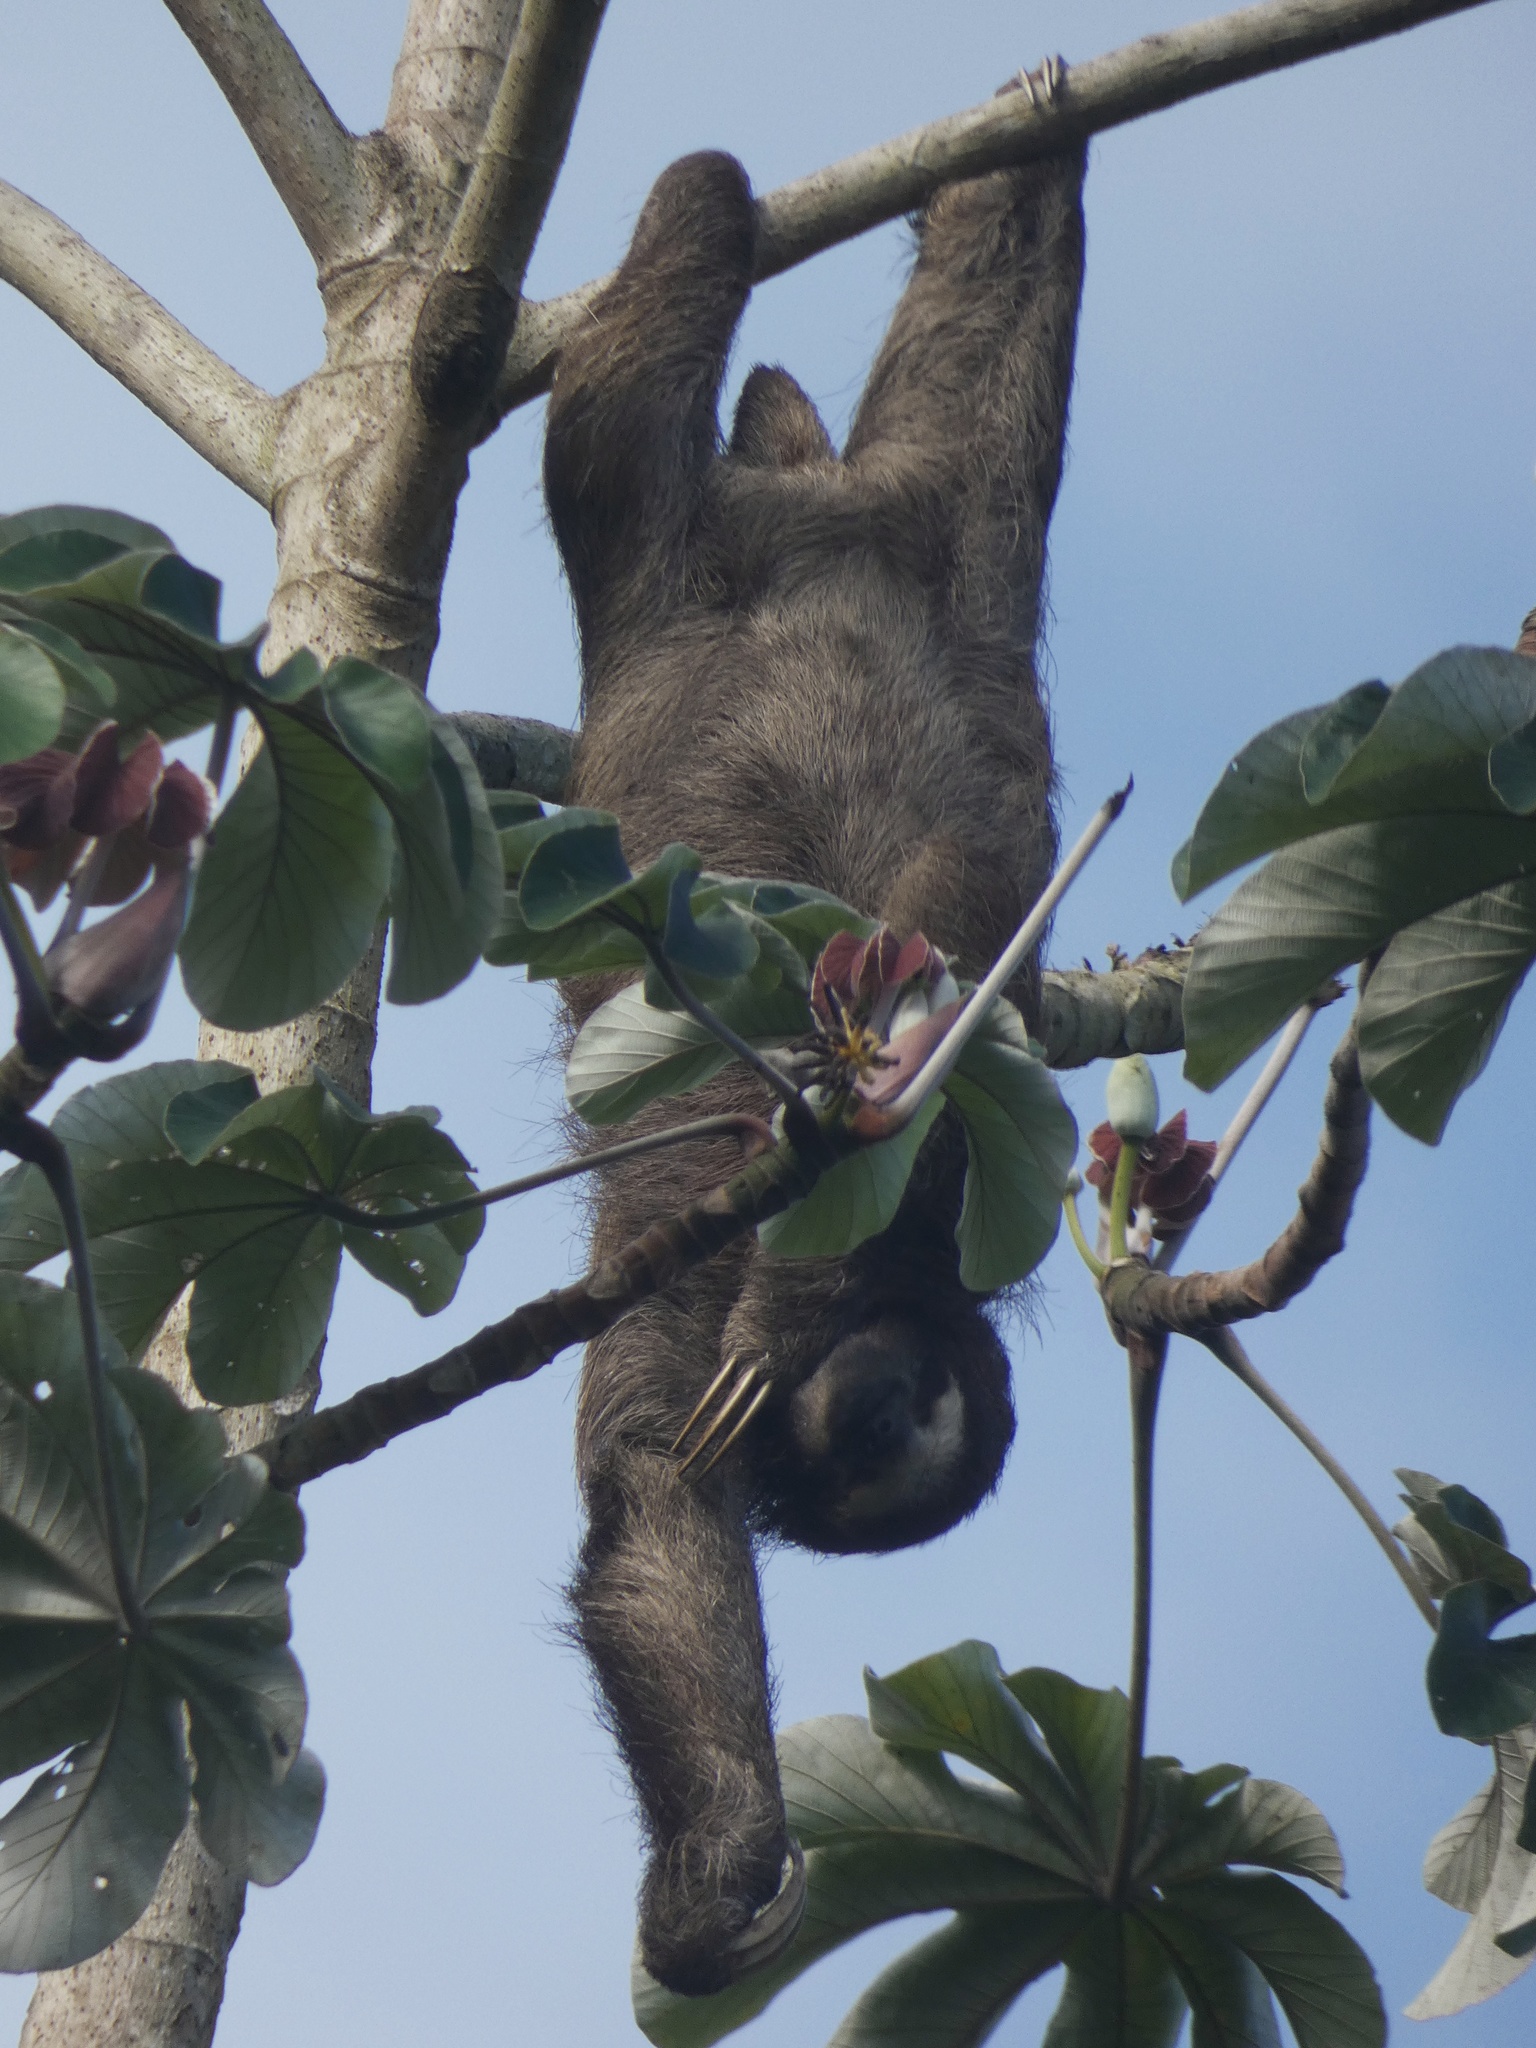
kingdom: Animalia
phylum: Chordata
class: Mammalia
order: Pilosa
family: Bradypodidae
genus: Bradypus
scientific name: Bradypus variegatus
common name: Brown-throated three-toed sloth
